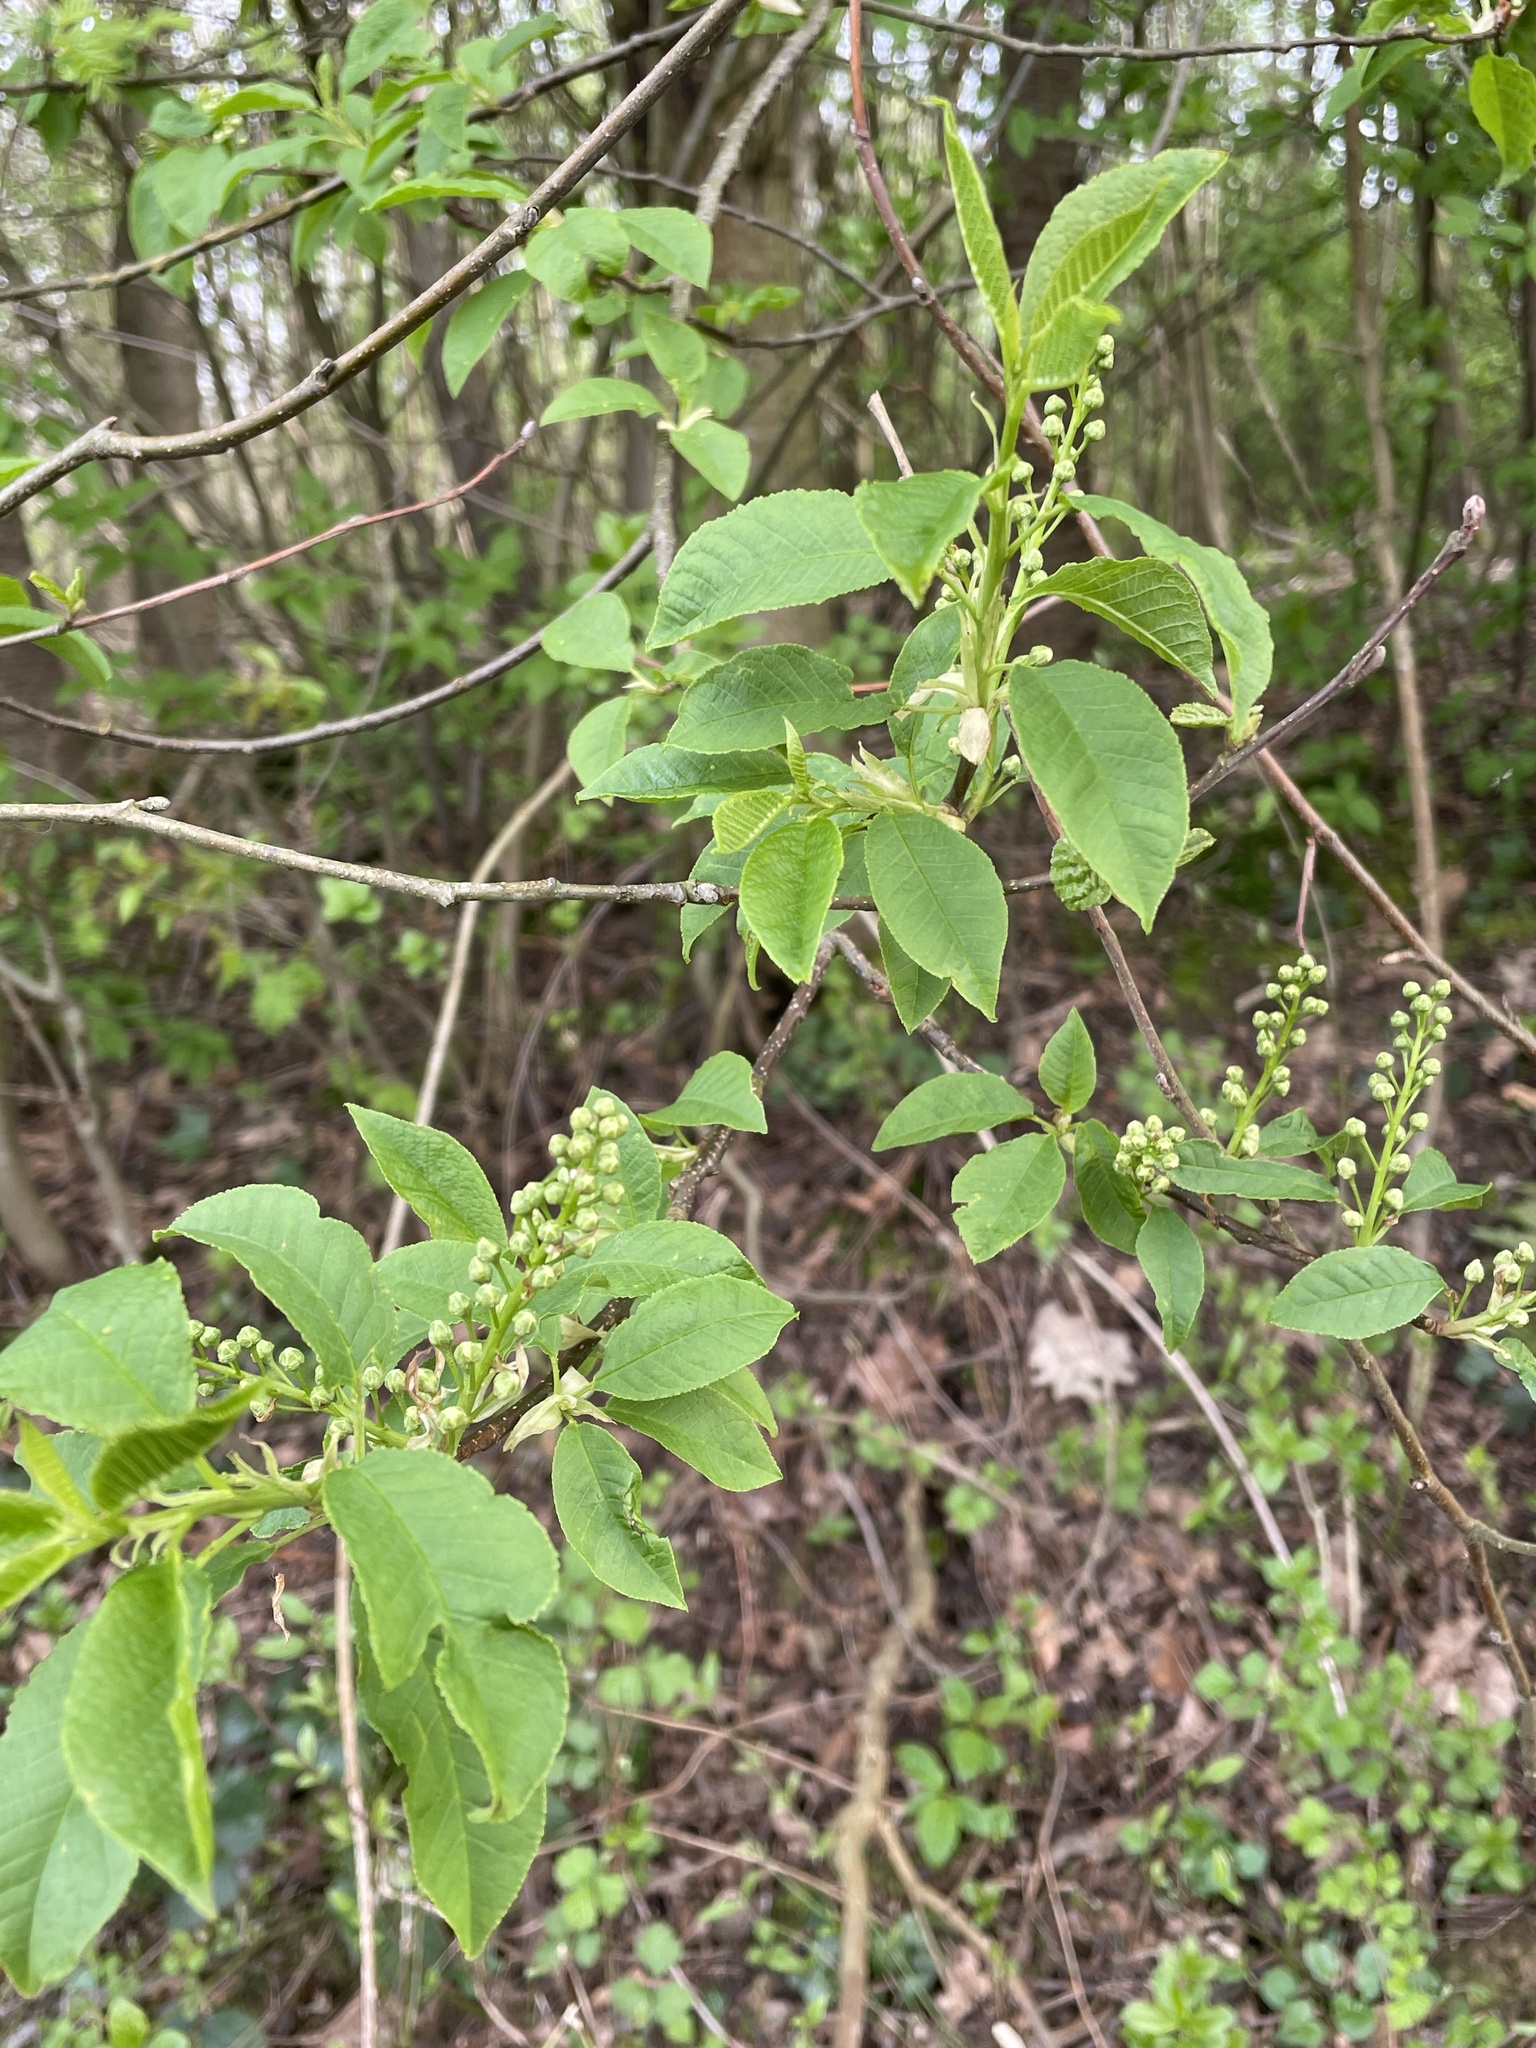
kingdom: Plantae
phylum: Tracheophyta
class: Magnoliopsida
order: Rosales
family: Rosaceae
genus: Prunus
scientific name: Prunus padus
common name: Bird cherry
